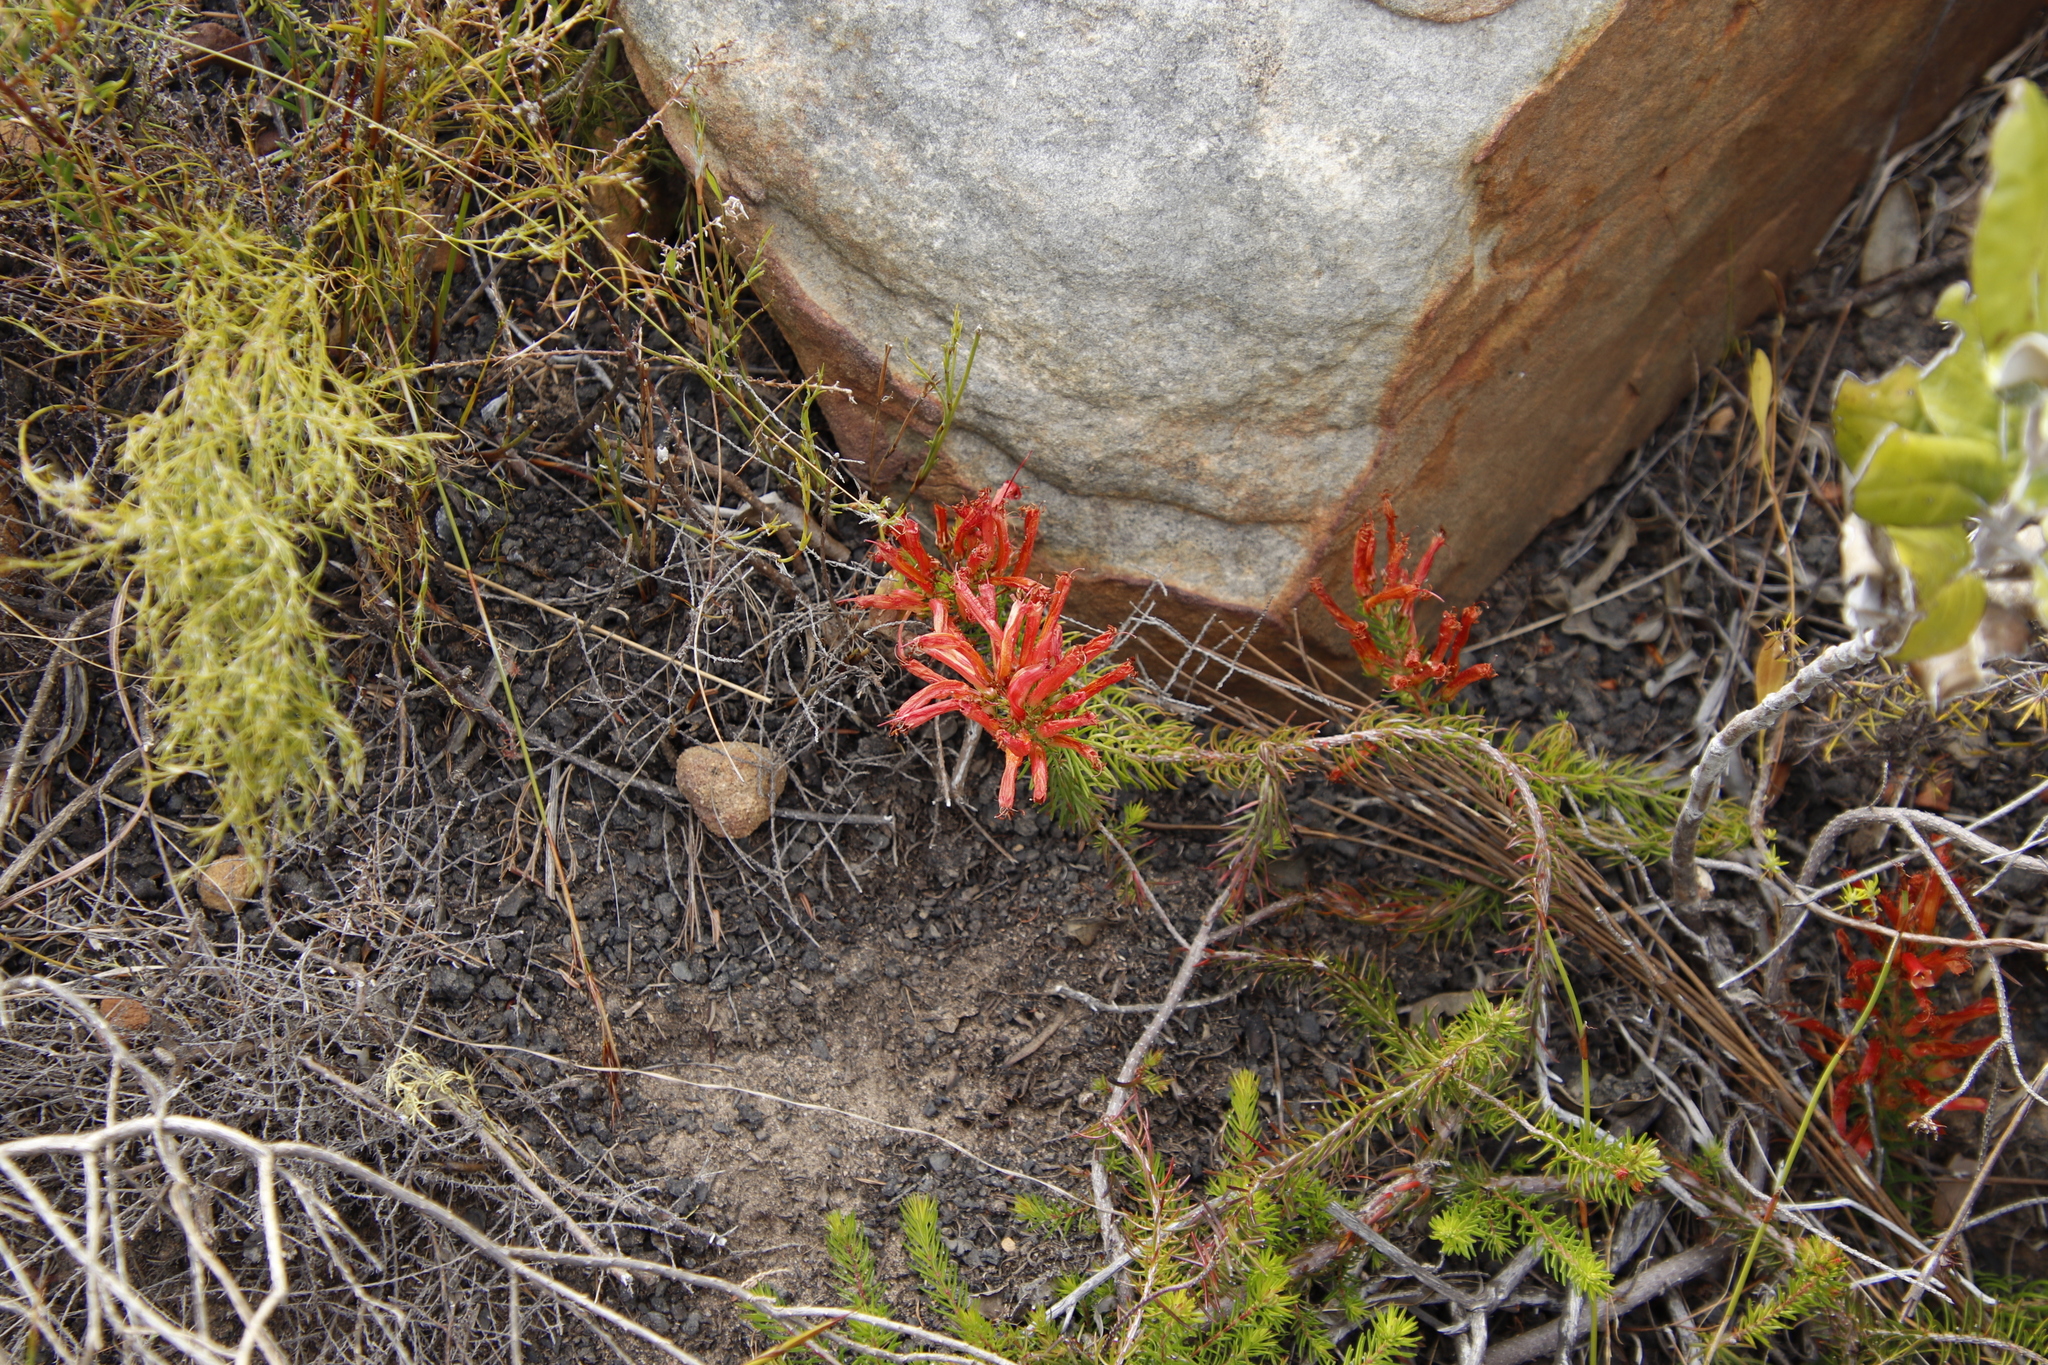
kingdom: Plantae
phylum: Tracheophyta
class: Magnoliopsida
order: Ericales
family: Ericaceae
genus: Erica
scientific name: Erica nevillei
